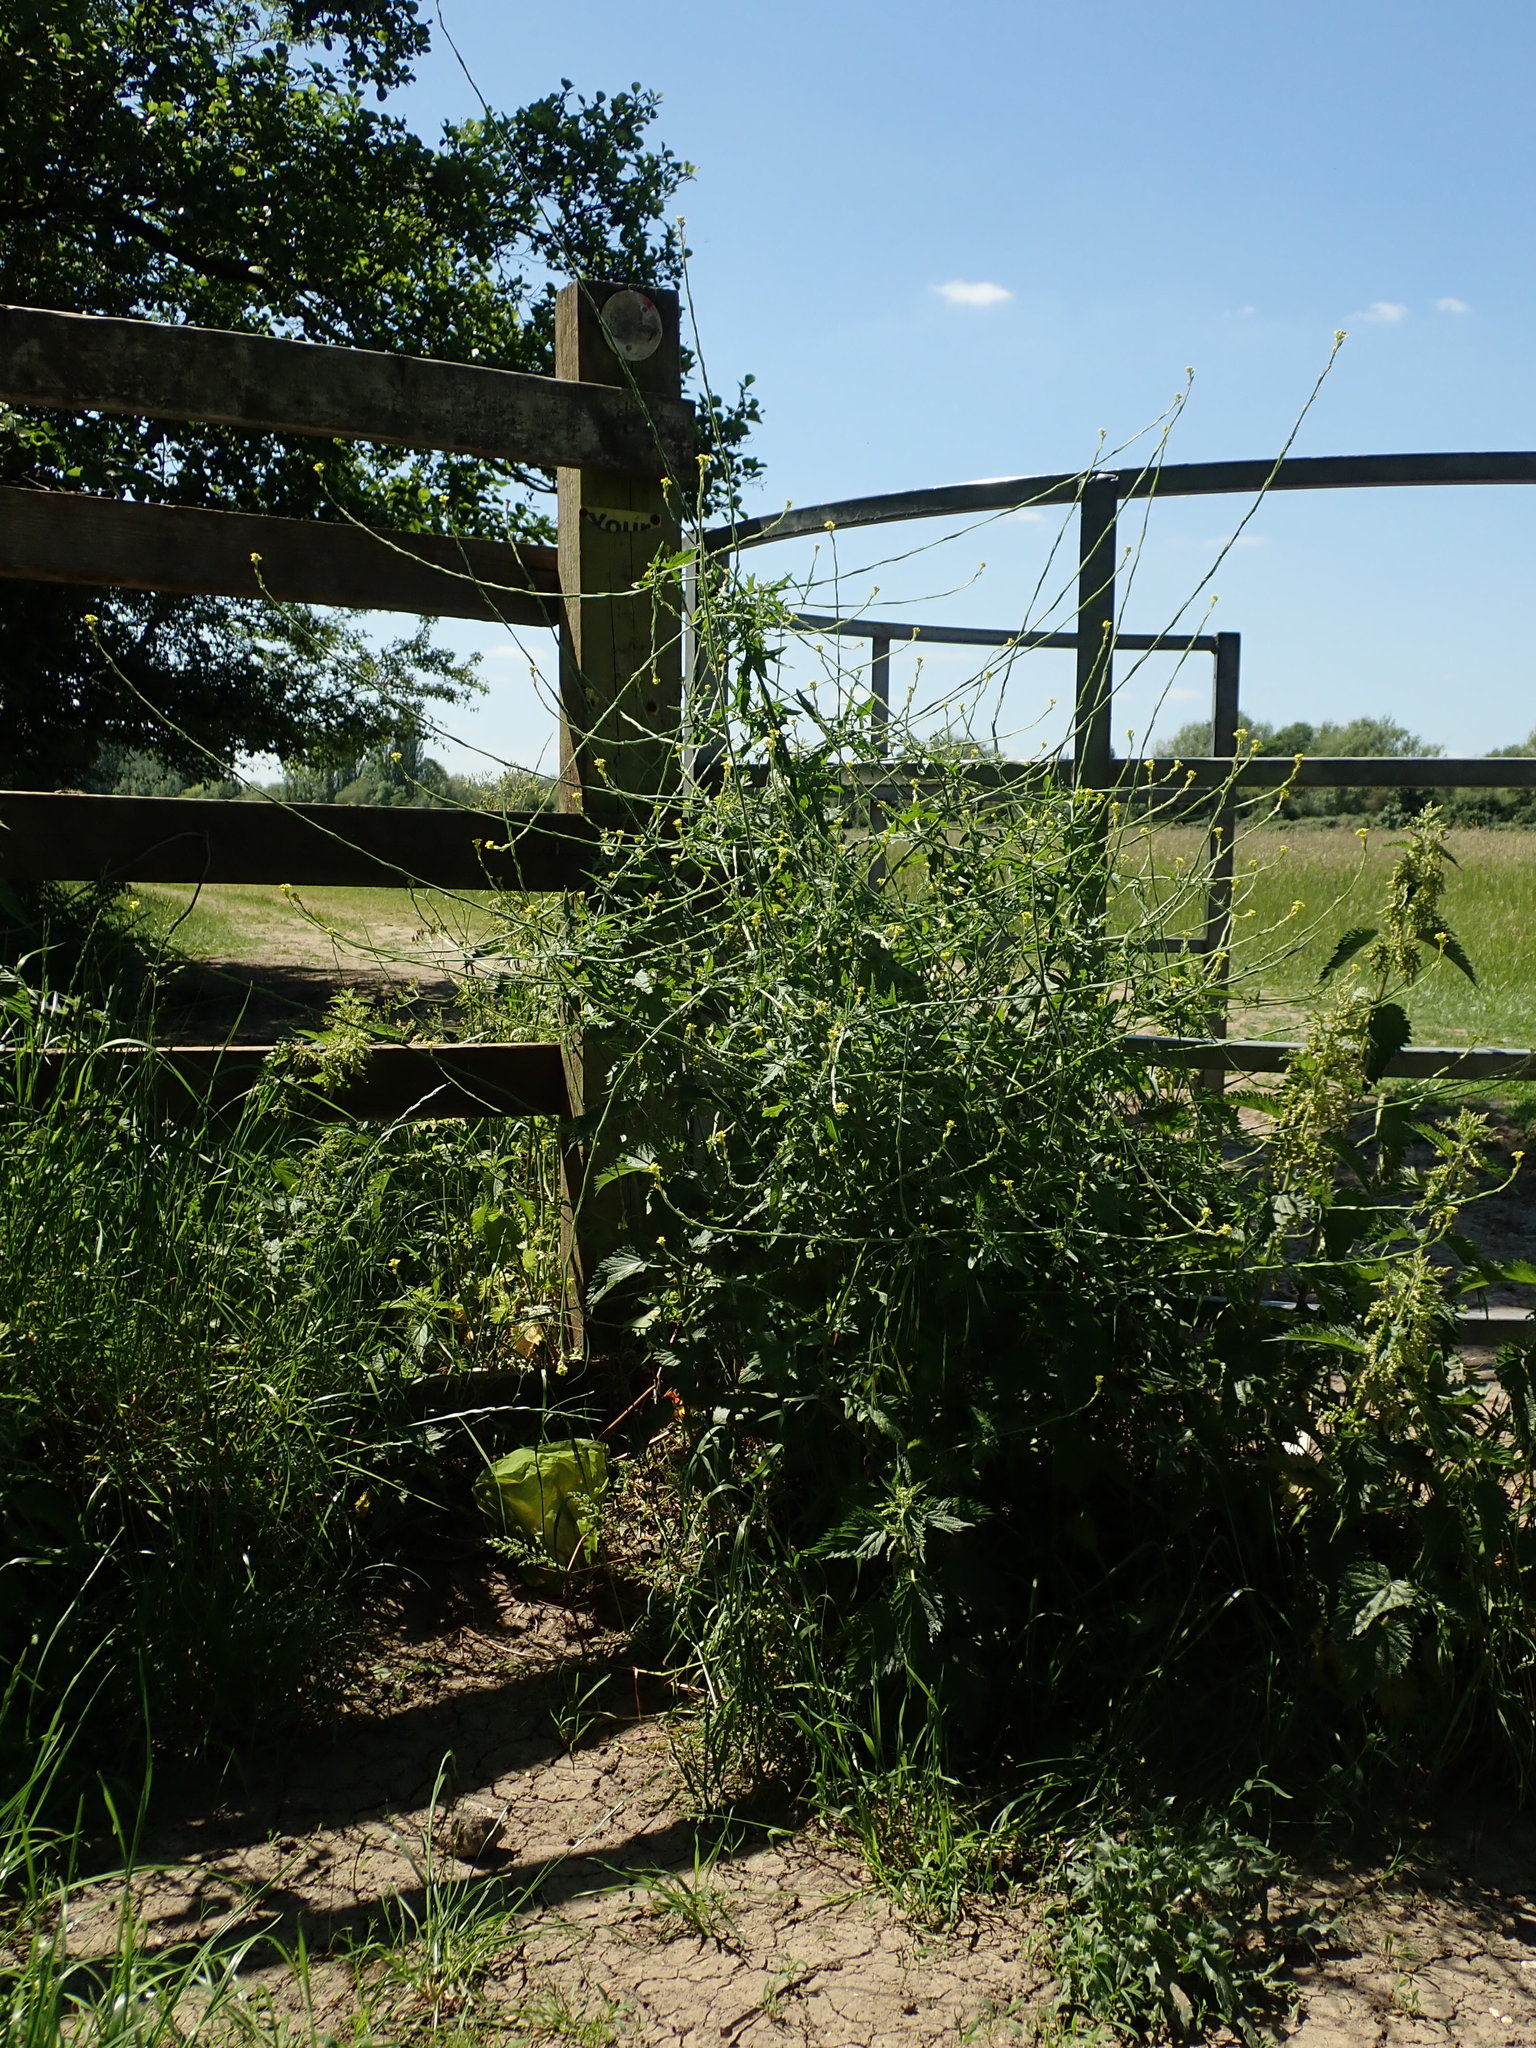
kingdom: Plantae
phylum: Tracheophyta
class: Magnoliopsida
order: Brassicales
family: Brassicaceae
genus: Sisymbrium
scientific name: Sisymbrium officinale
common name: Hedge mustard
